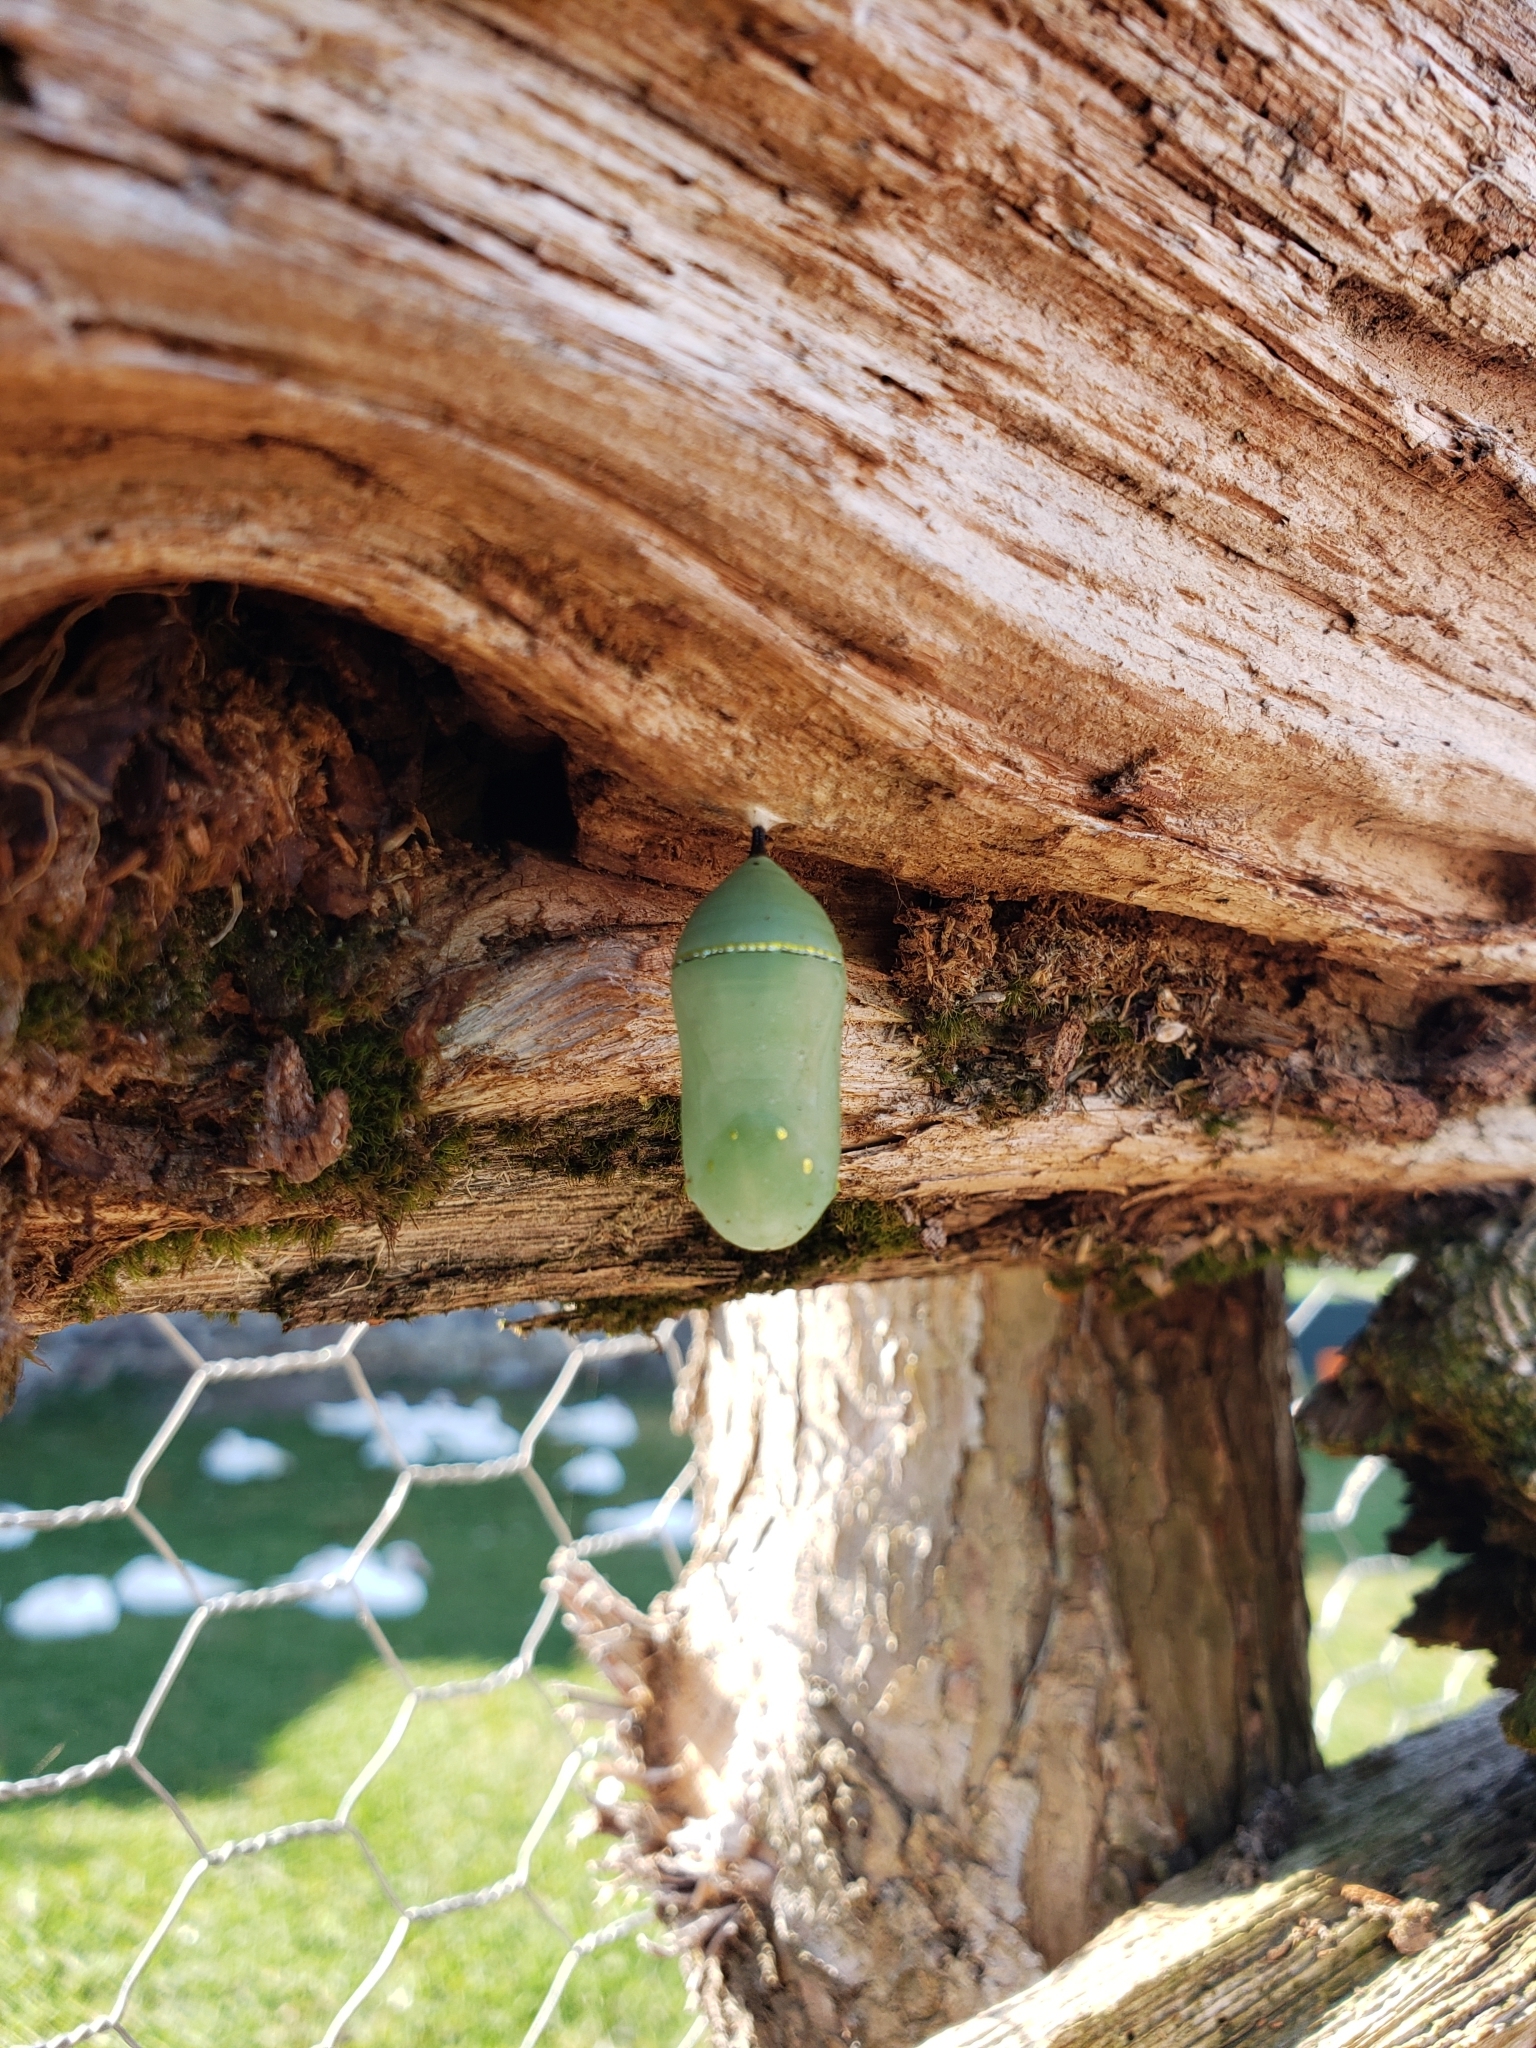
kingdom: Animalia
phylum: Arthropoda
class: Insecta
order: Lepidoptera
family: Nymphalidae
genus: Danaus
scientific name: Danaus plexippus
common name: Monarch
